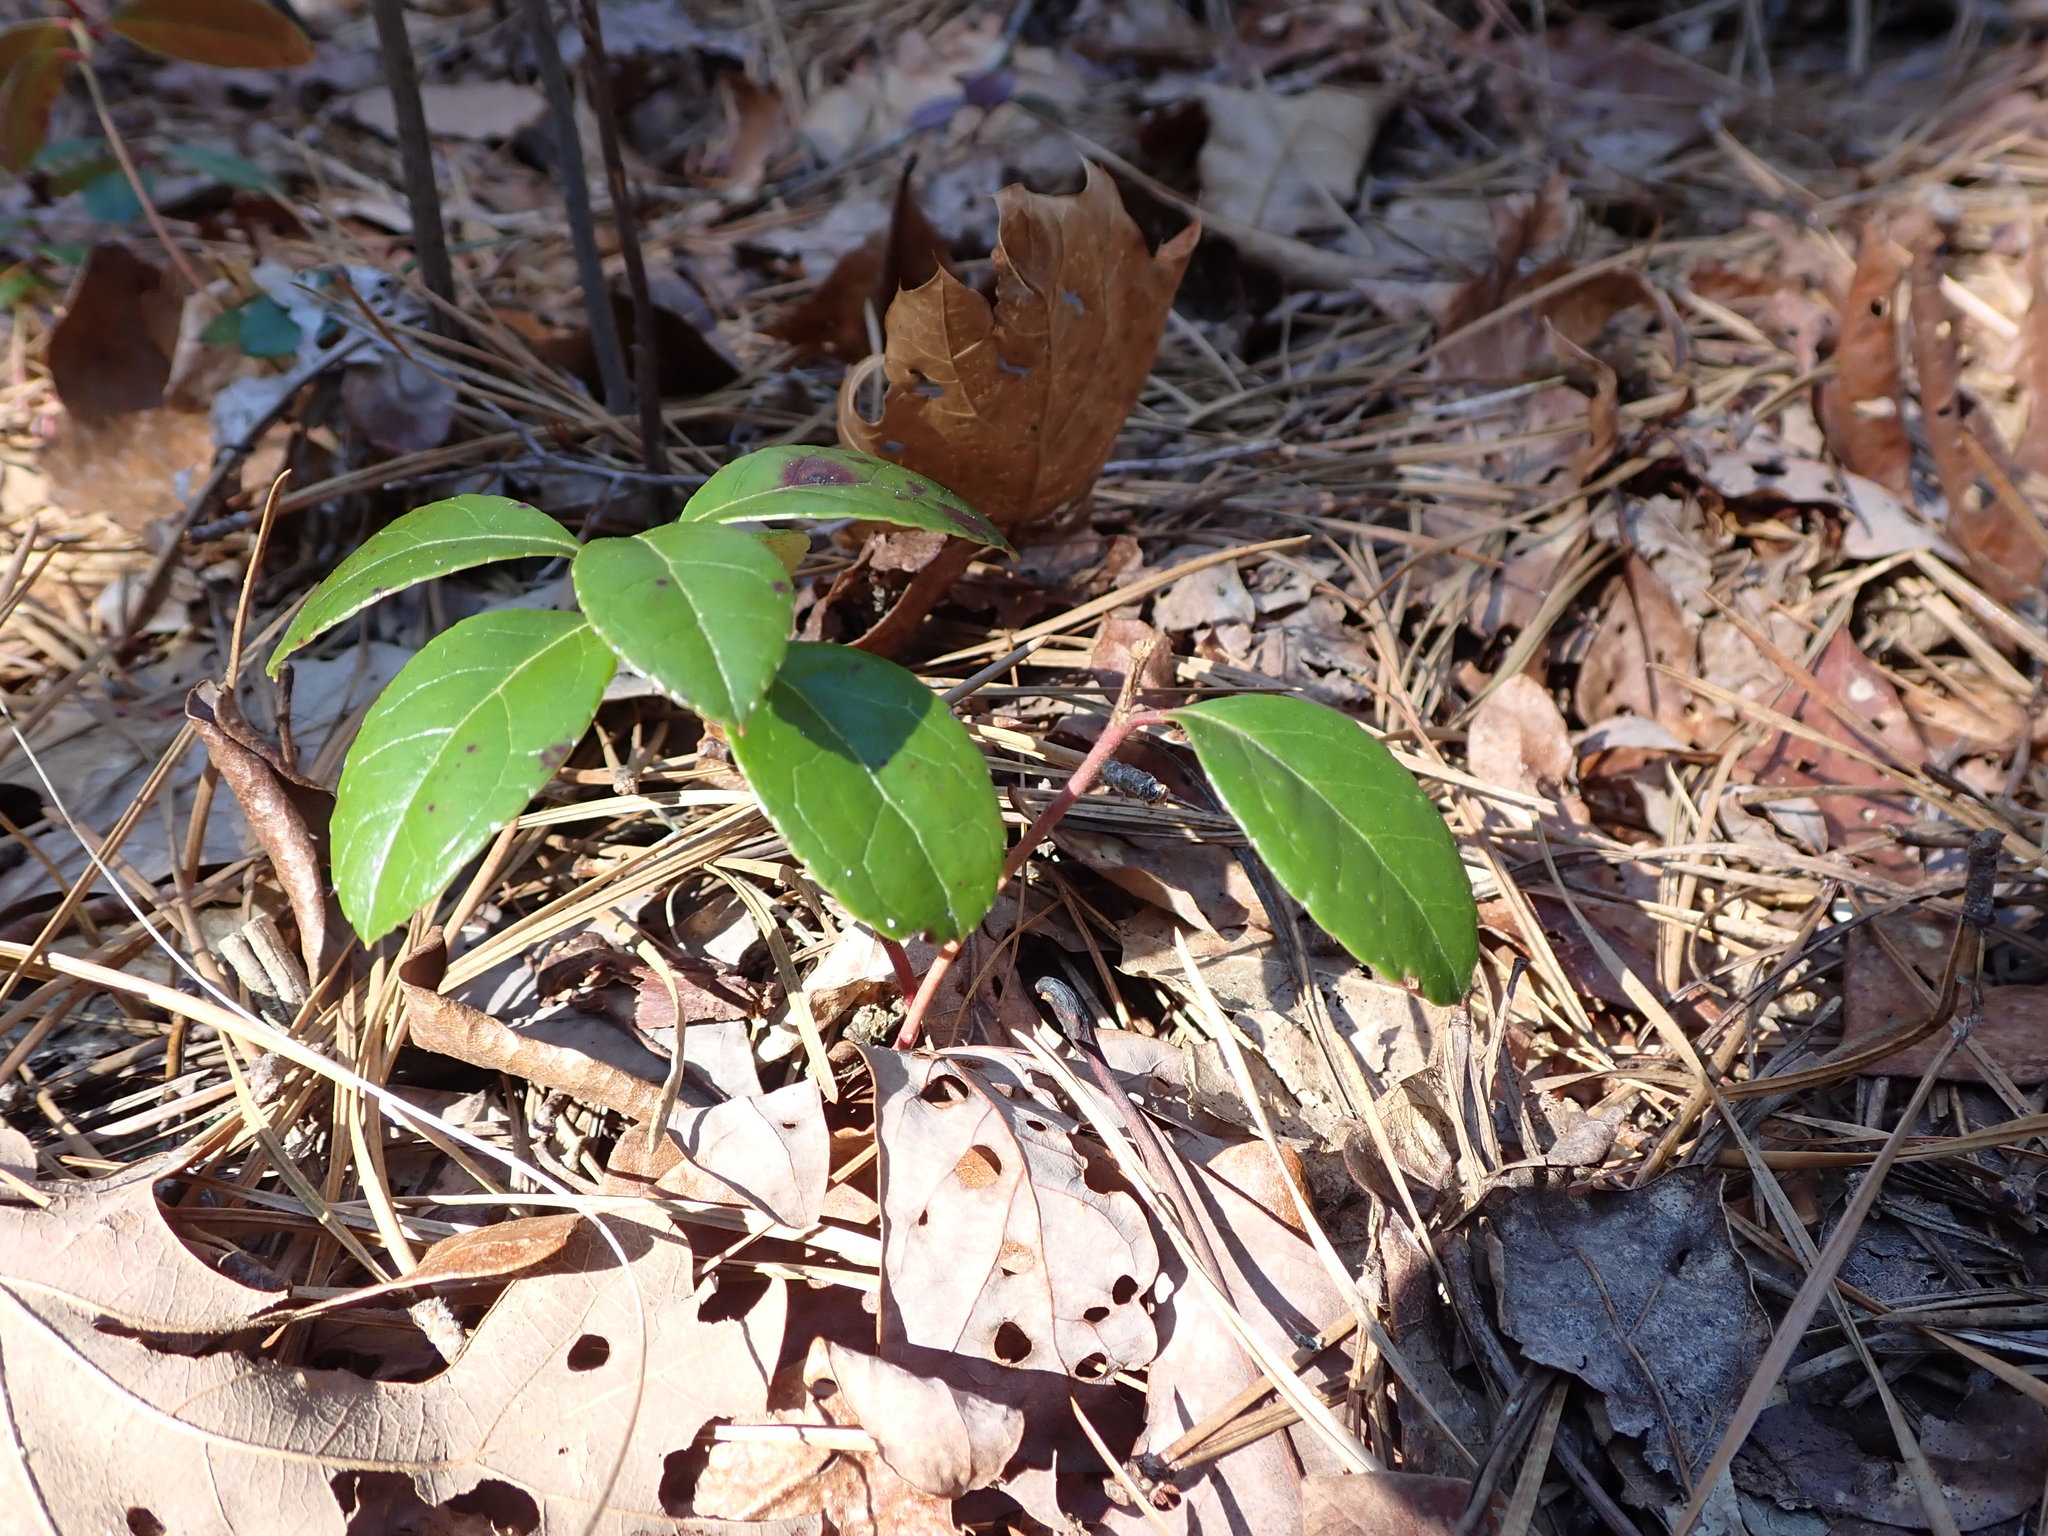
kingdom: Plantae
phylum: Tracheophyta
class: Magnoliopsida
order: Ericales
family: Ericaceae
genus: Gaultheria
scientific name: Gaultheria procumbens
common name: Checkerberry
